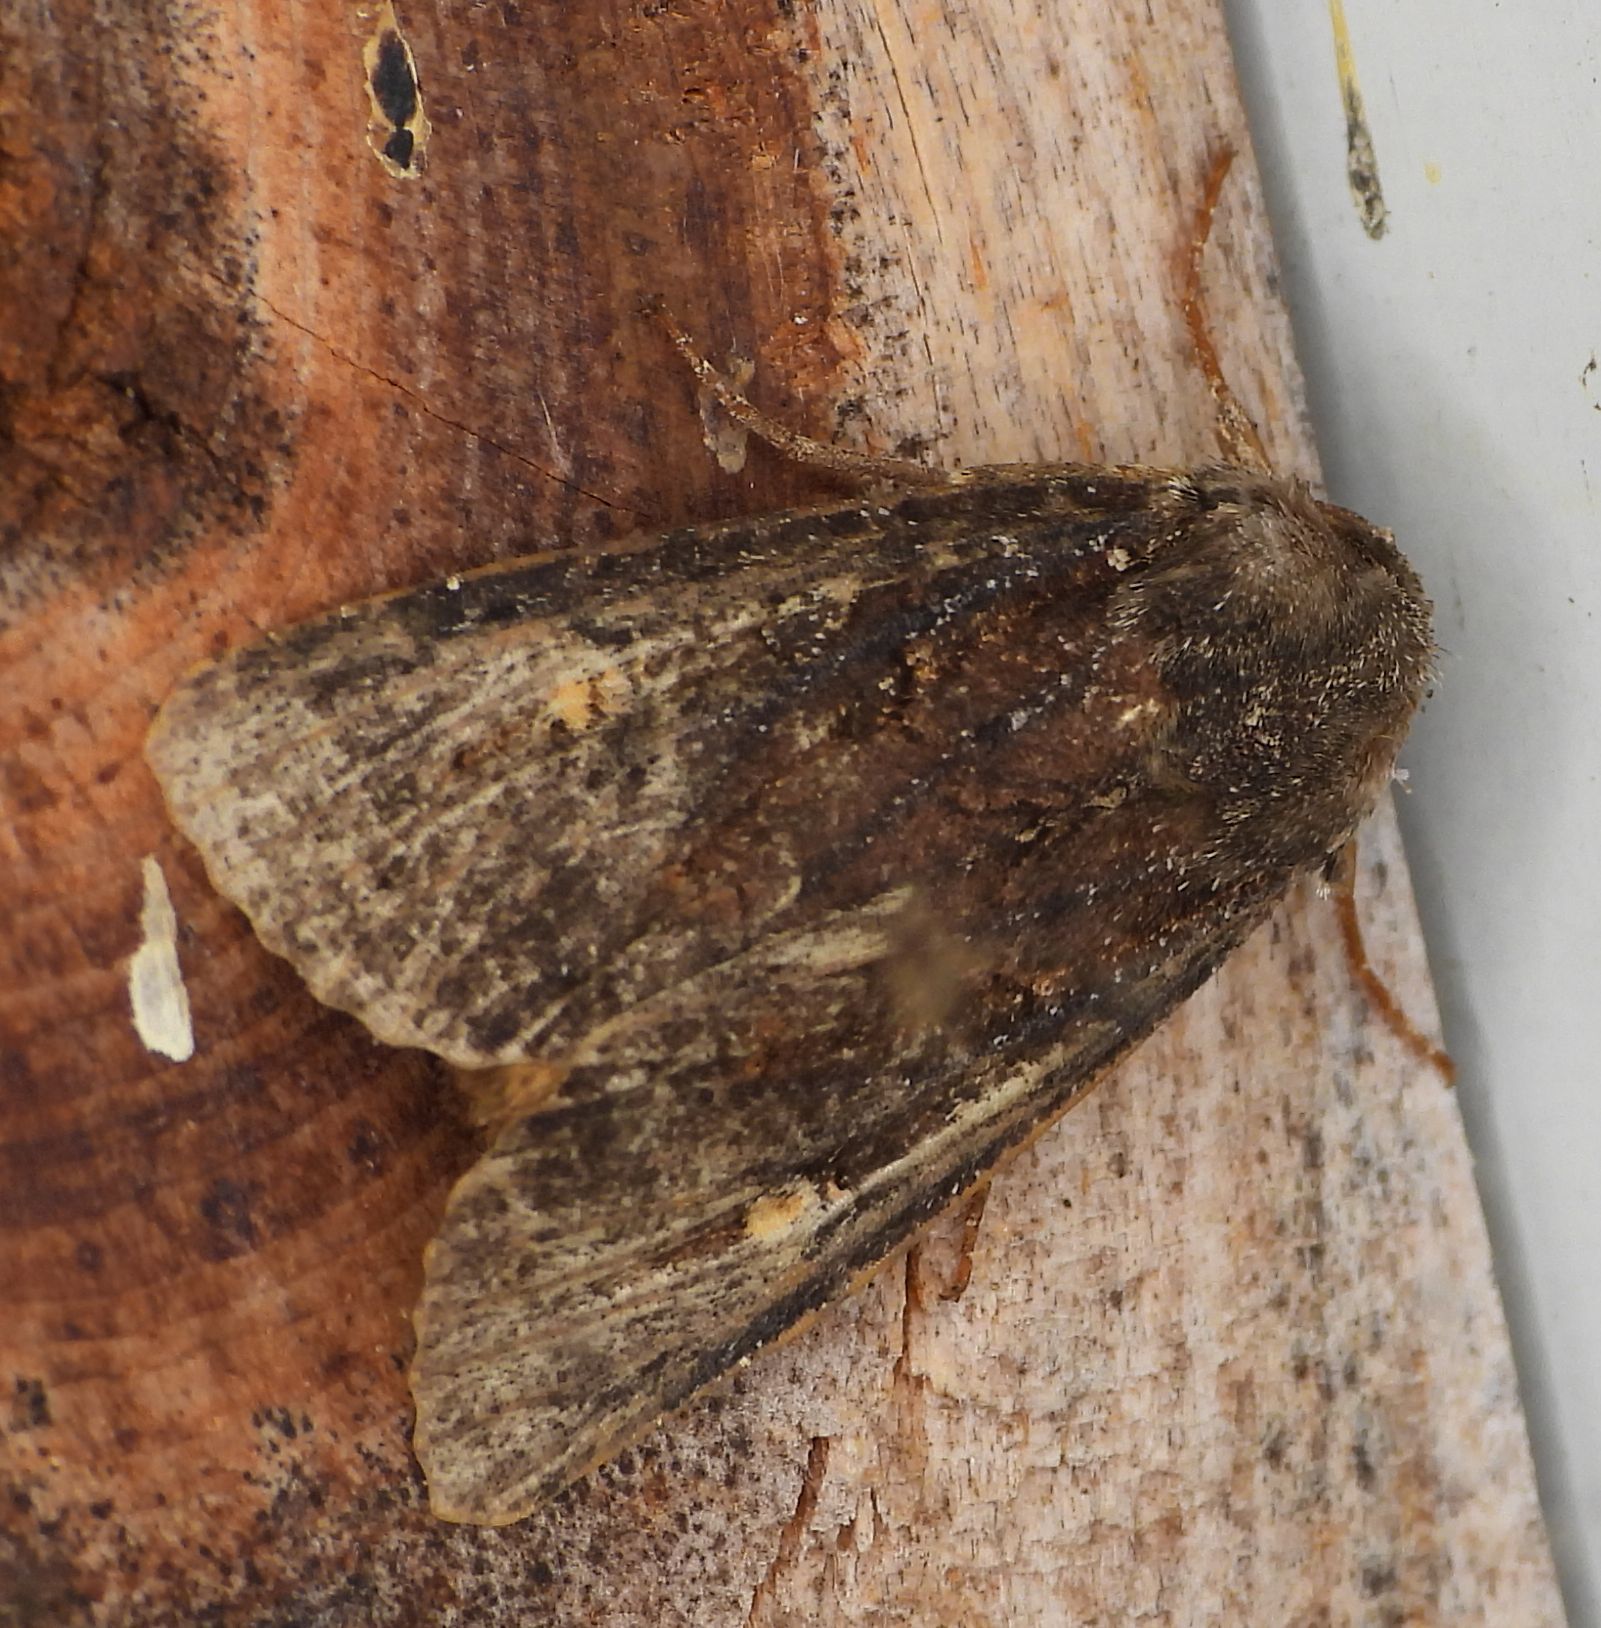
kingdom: Animalia
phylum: Arthropoda
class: Insecta
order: Lepidoptera
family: Noctuidae
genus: Apamea
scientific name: Apamea dubitans
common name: Doubtful apamea moth
